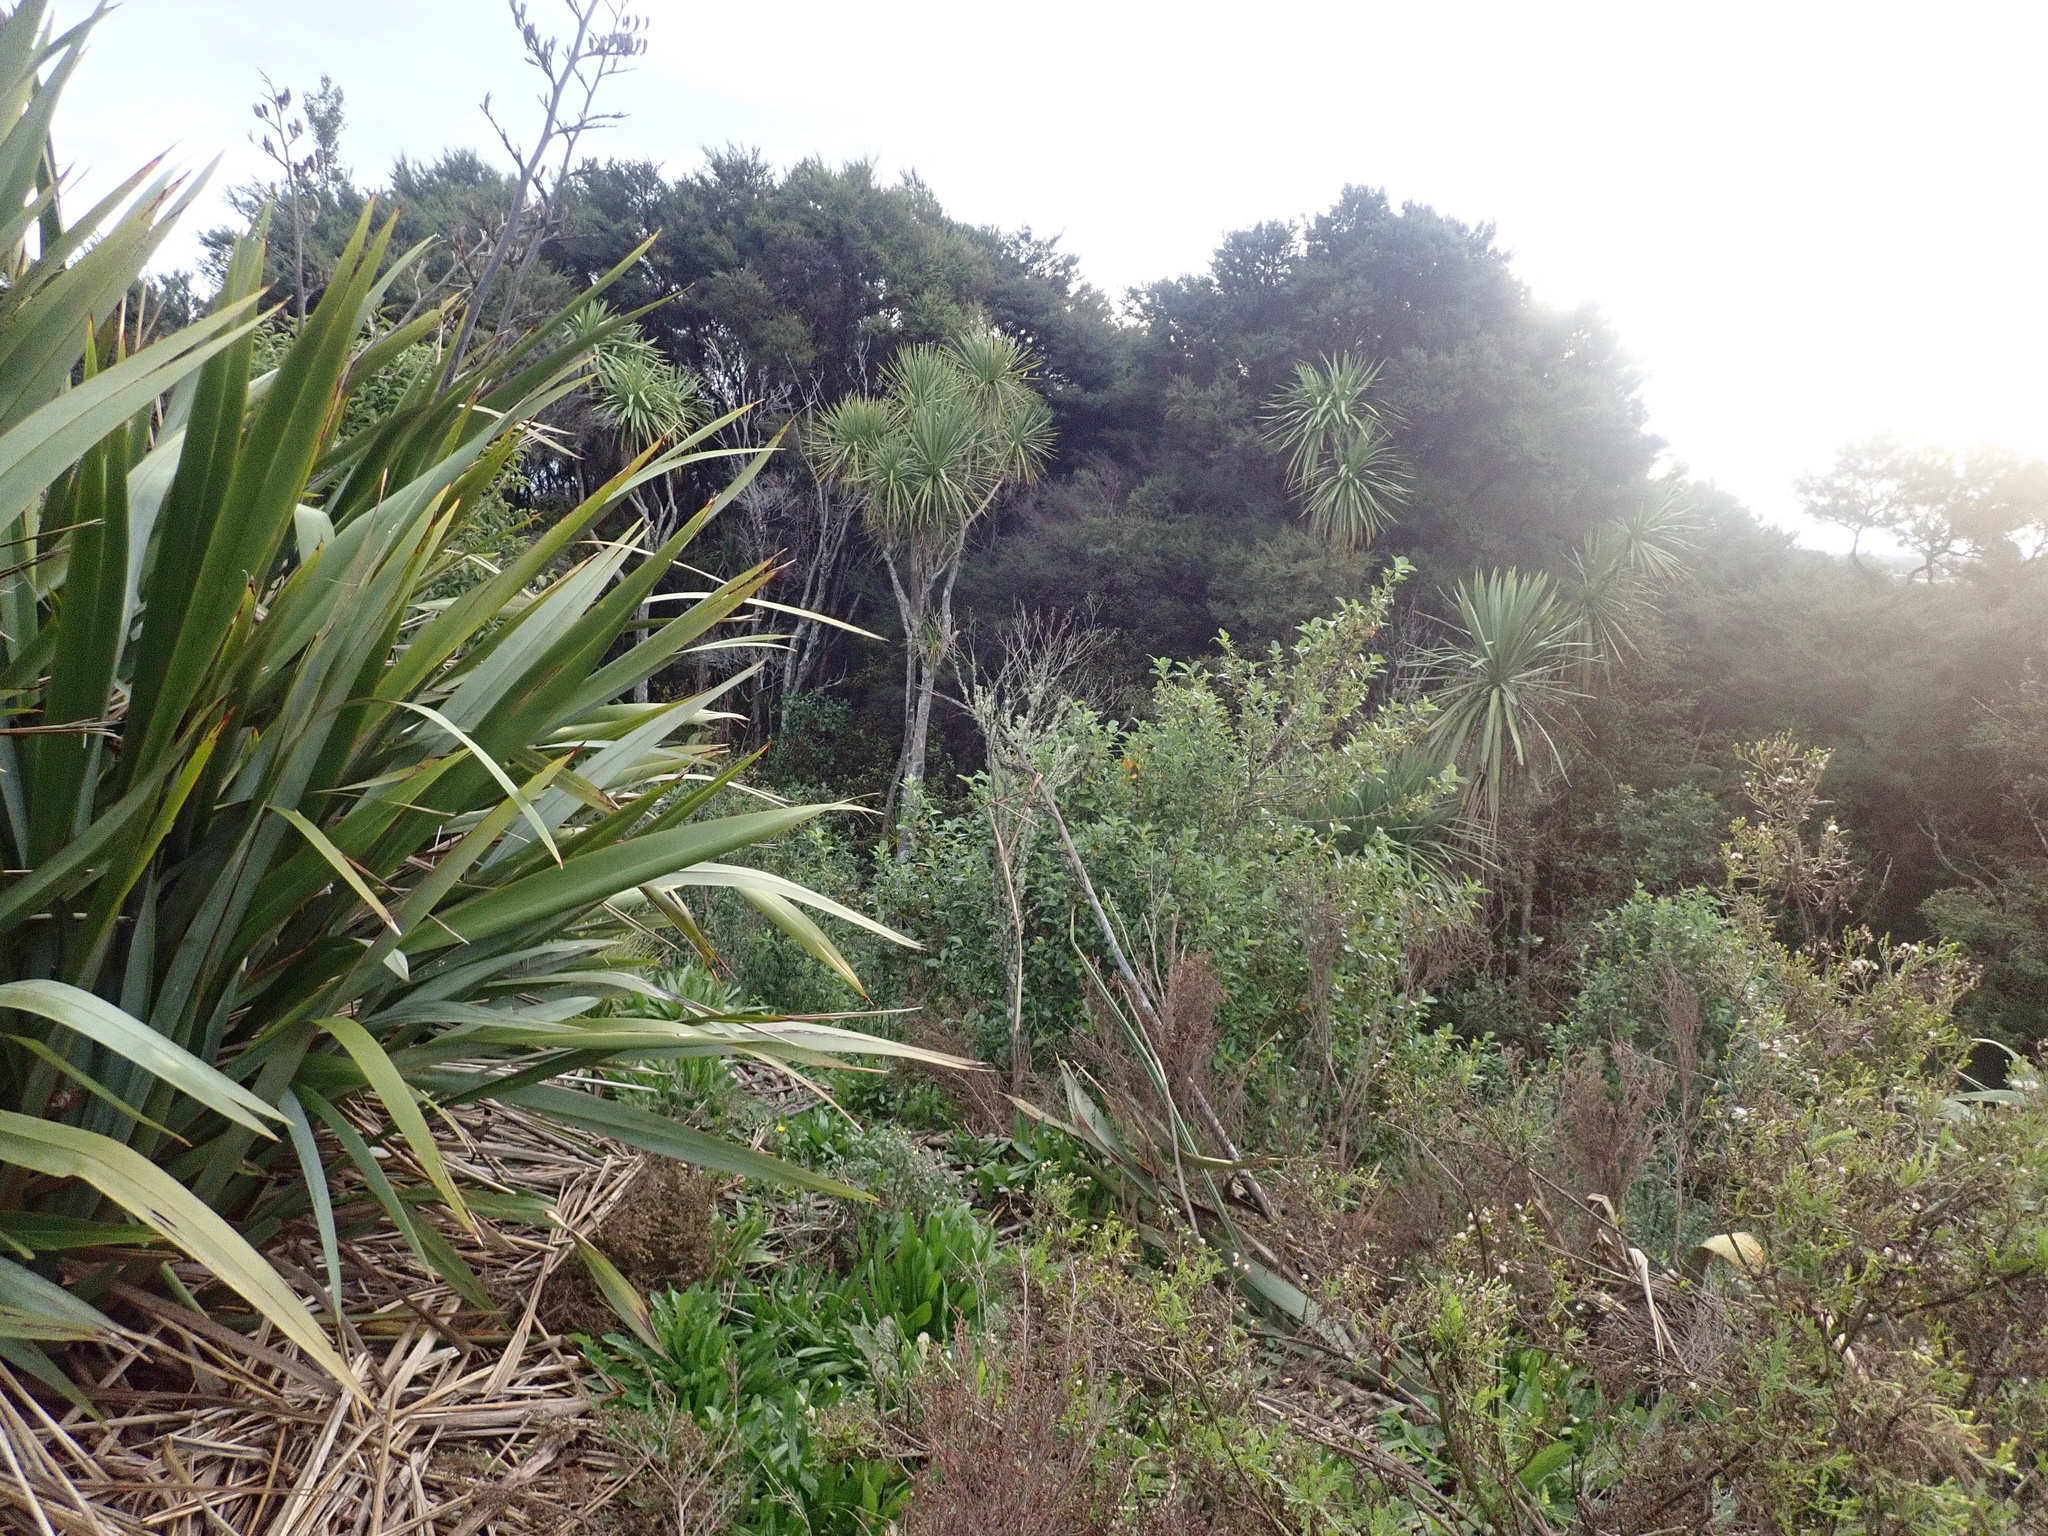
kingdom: Plantae
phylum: Tracheophyta
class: Liliopsida
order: Asparagales
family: Asparagaceae
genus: Cordyline
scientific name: Cordyline australis
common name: Cabbage-palm
